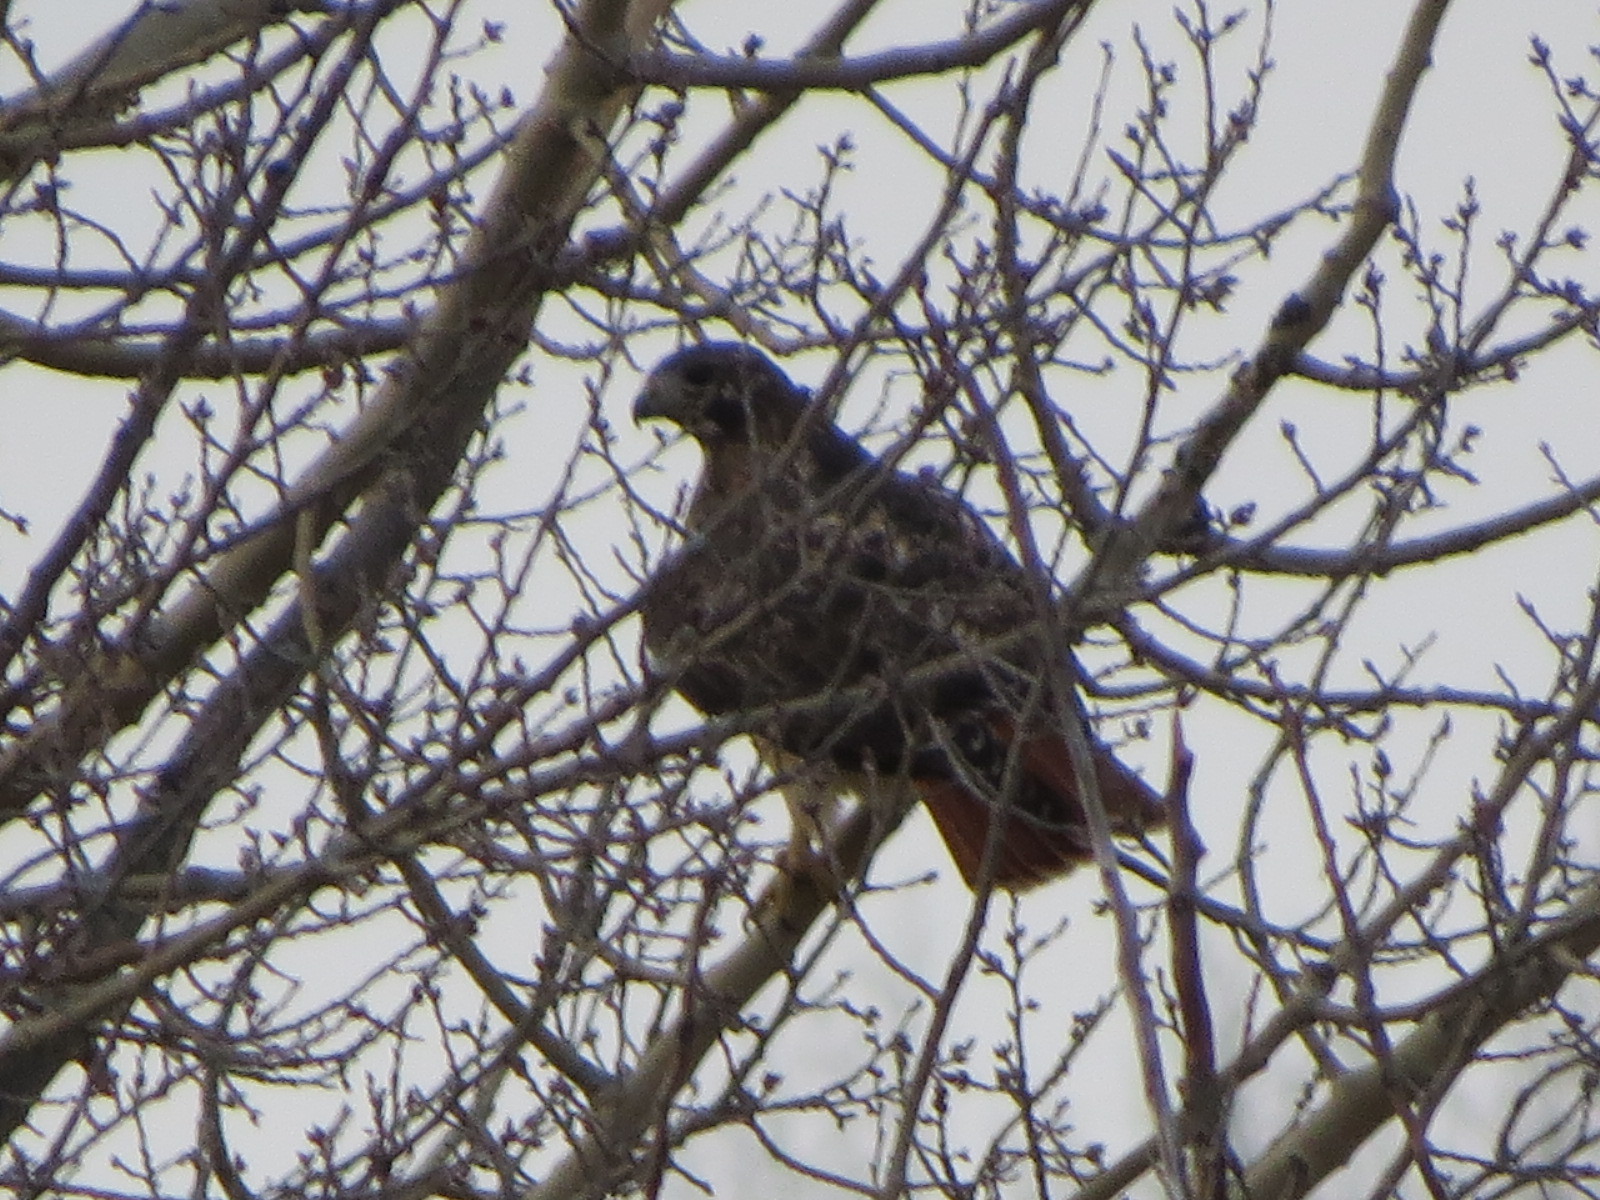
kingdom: Animalia
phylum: Chordata
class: Aves
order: Accipitriformes
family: Accipitridae
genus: Buteo
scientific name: Buteo jamaicensis
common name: Red-tailed hawk
